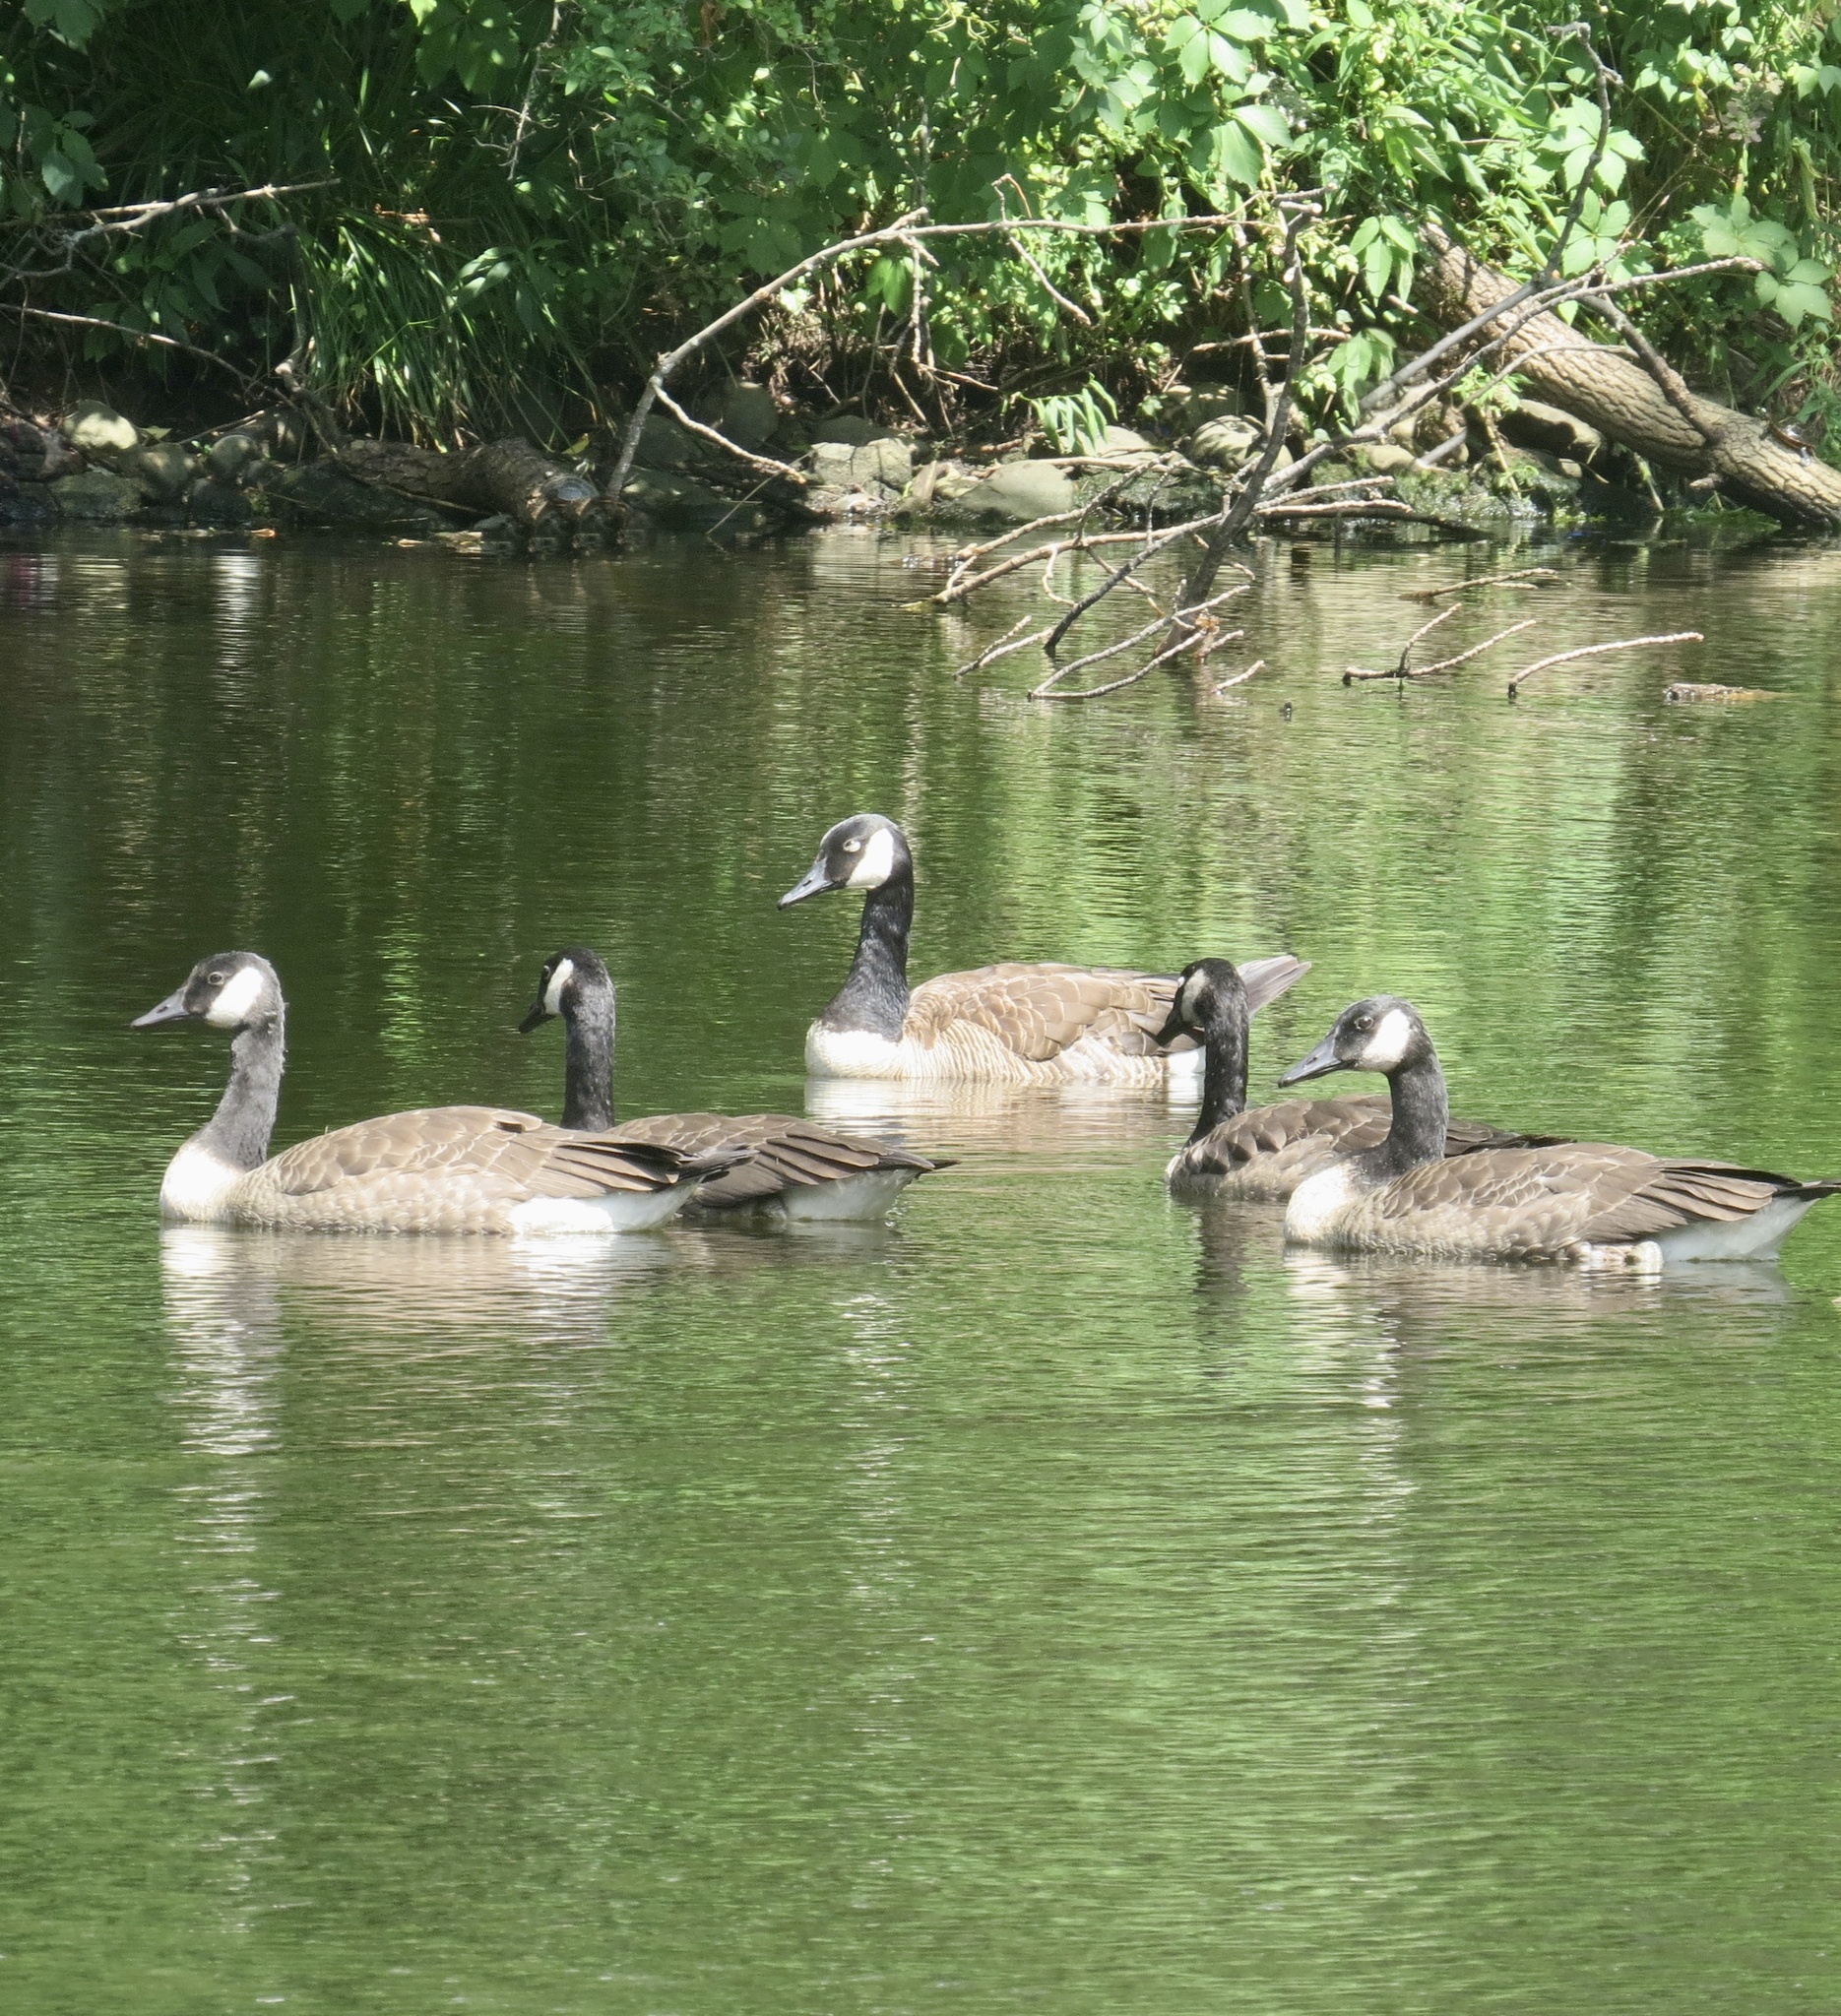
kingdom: Animalia
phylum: Chordata
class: Aves
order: Anseriformes
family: Anatidae
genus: Branta
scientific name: Branta canadensis
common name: Canada goose
